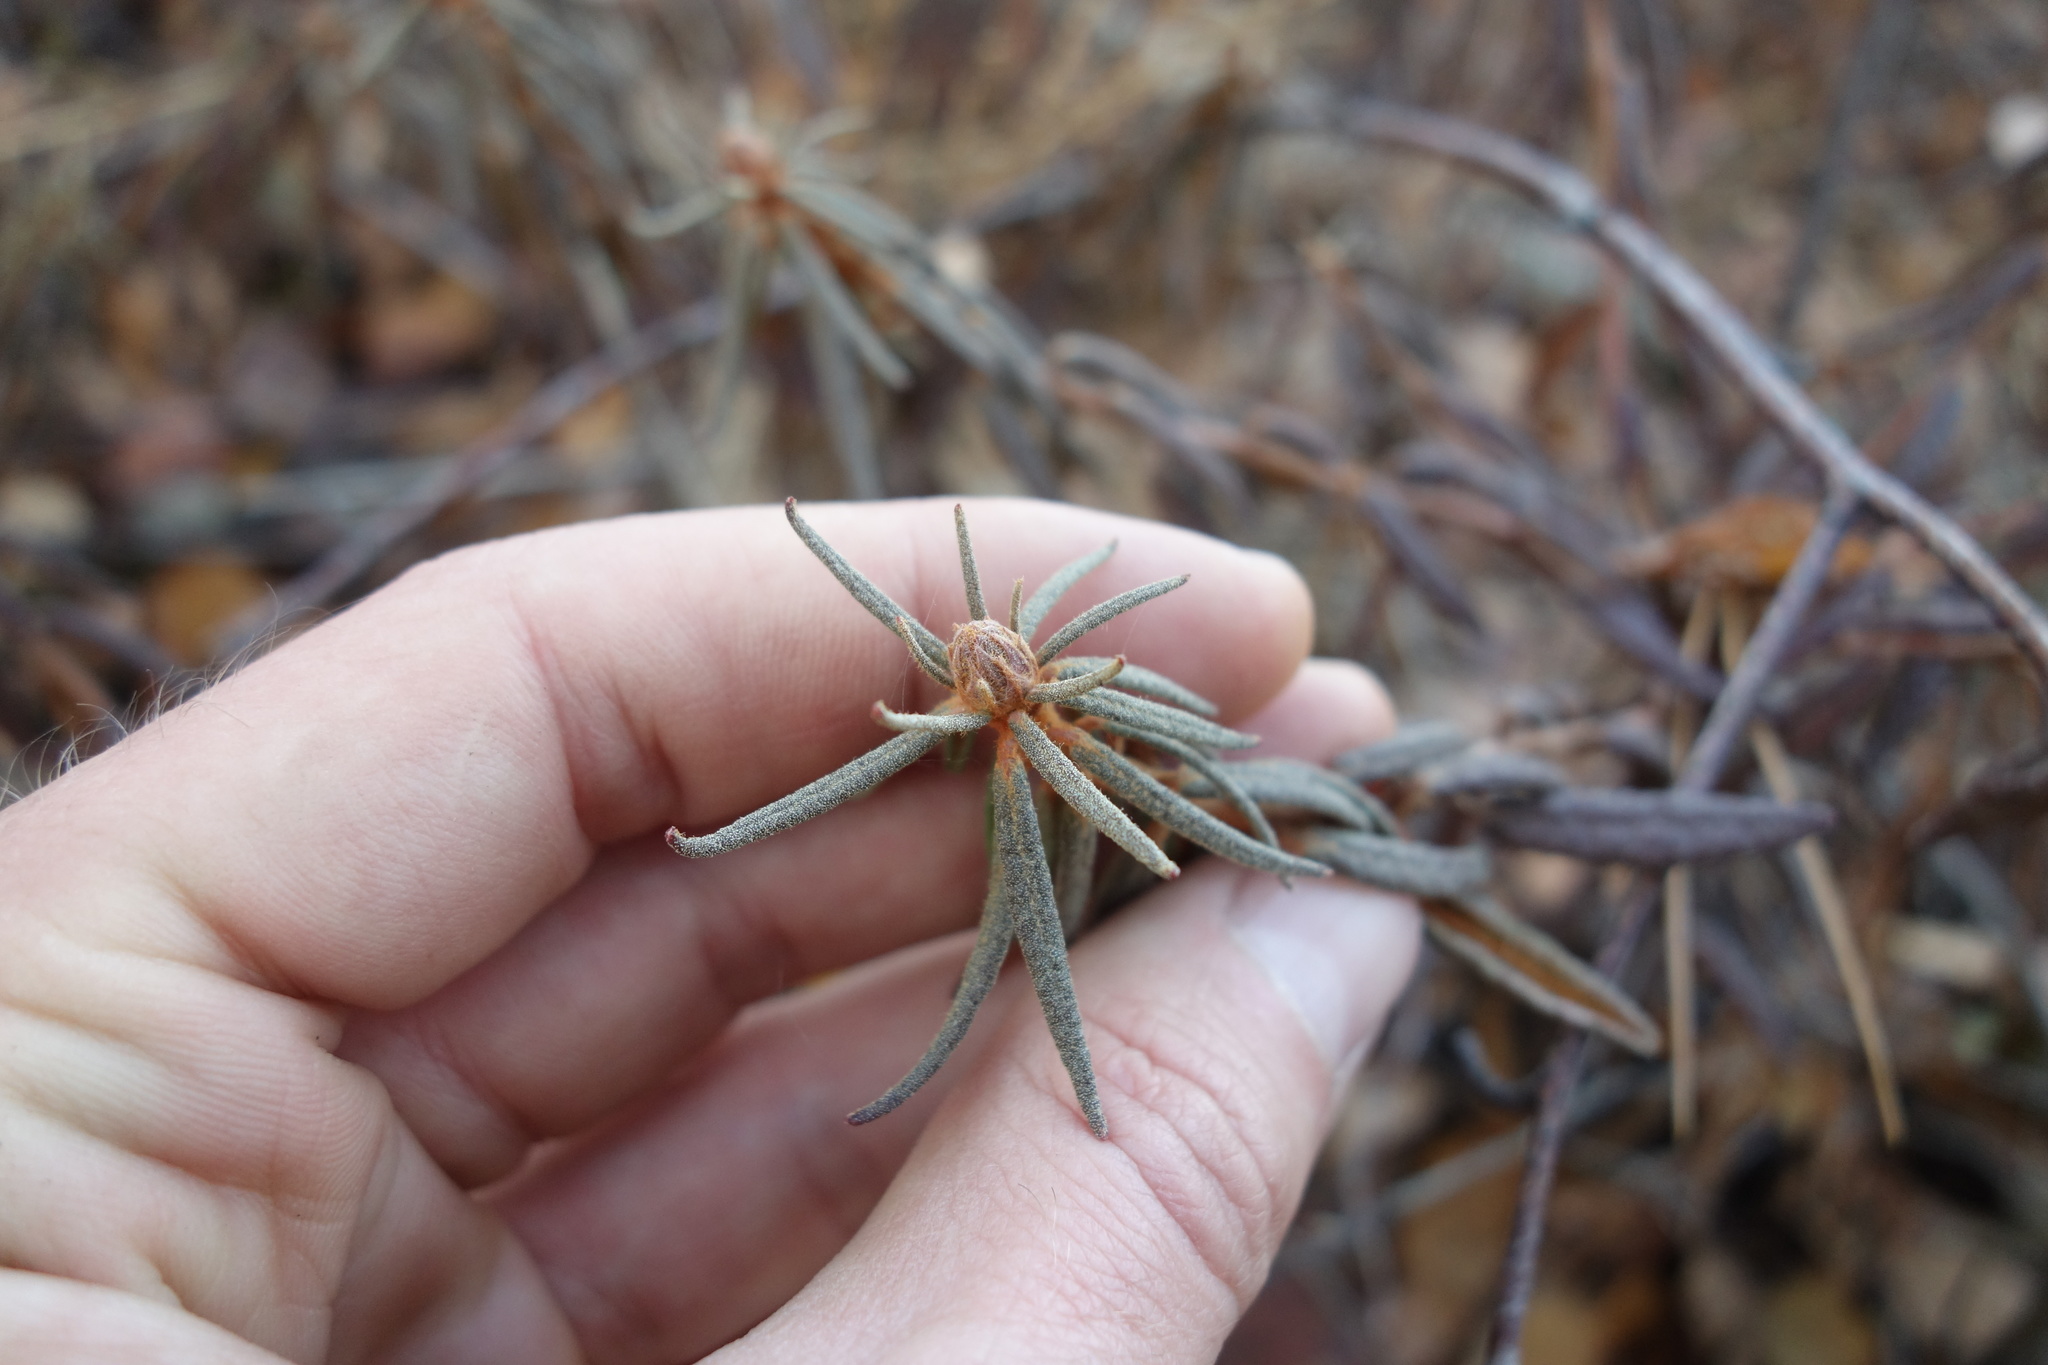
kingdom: Plantae
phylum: Tracheophyta
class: Magnoliopsida
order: Ericales
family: Ericaceae
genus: Rhododendron
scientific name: Rhododendron tomentosum
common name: Marsh labrador tea
